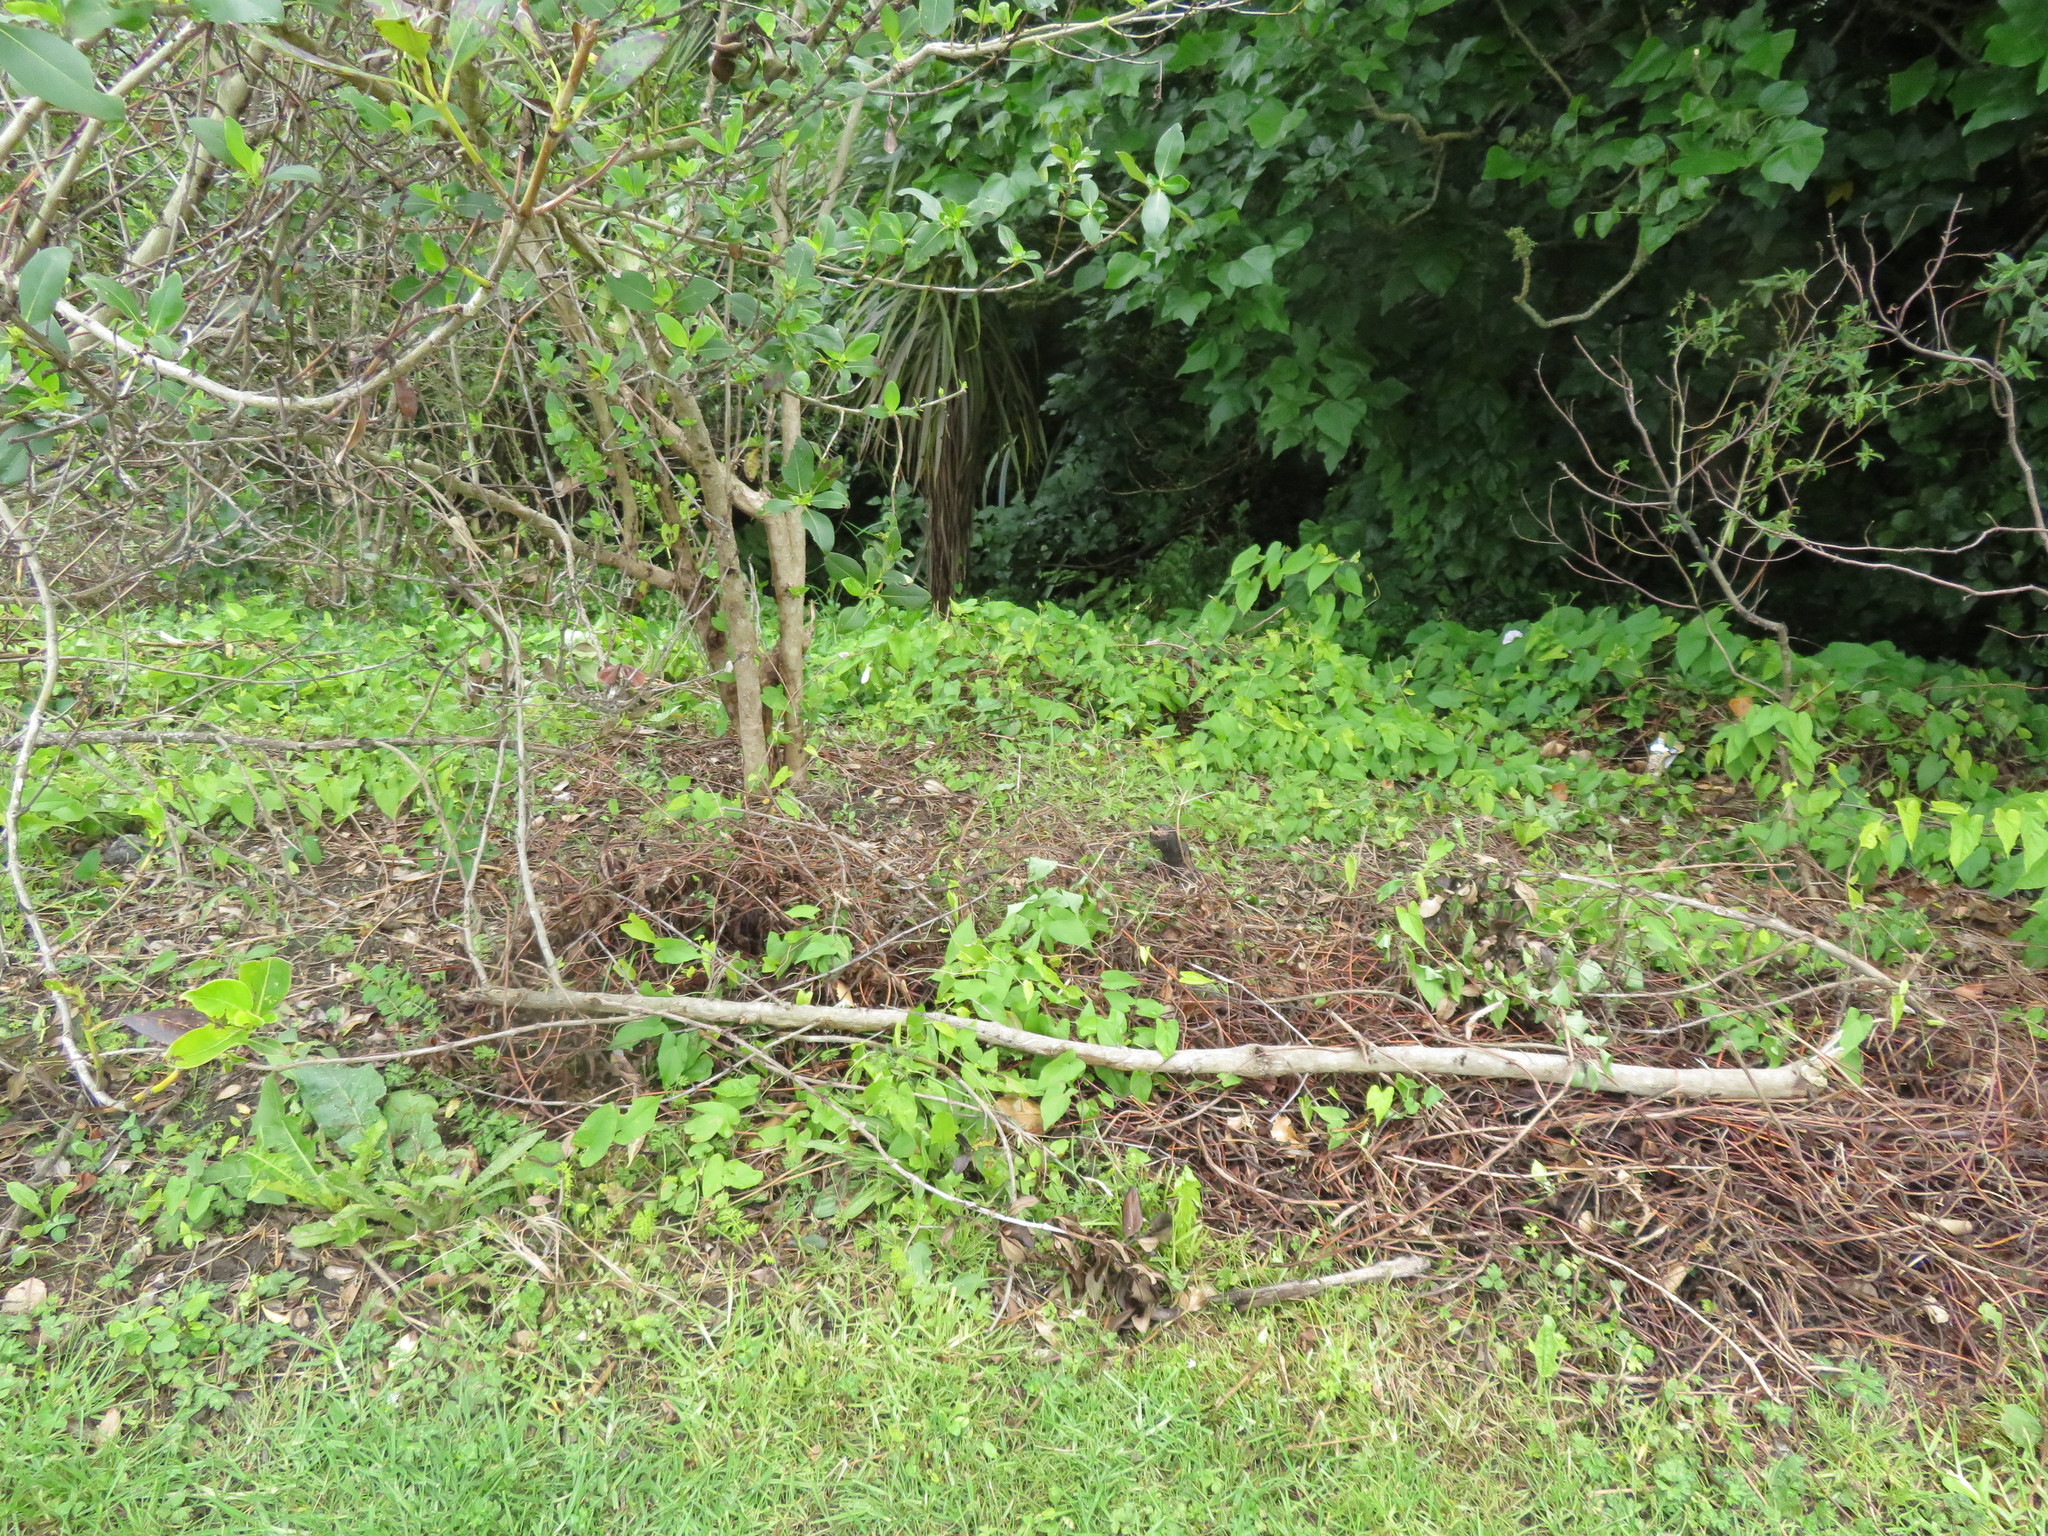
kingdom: Plantae
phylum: Tracheophyta
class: Magnoliopsida
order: Gentianales
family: Rubiaceae
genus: Coprosma
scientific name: Coprosma robusta
